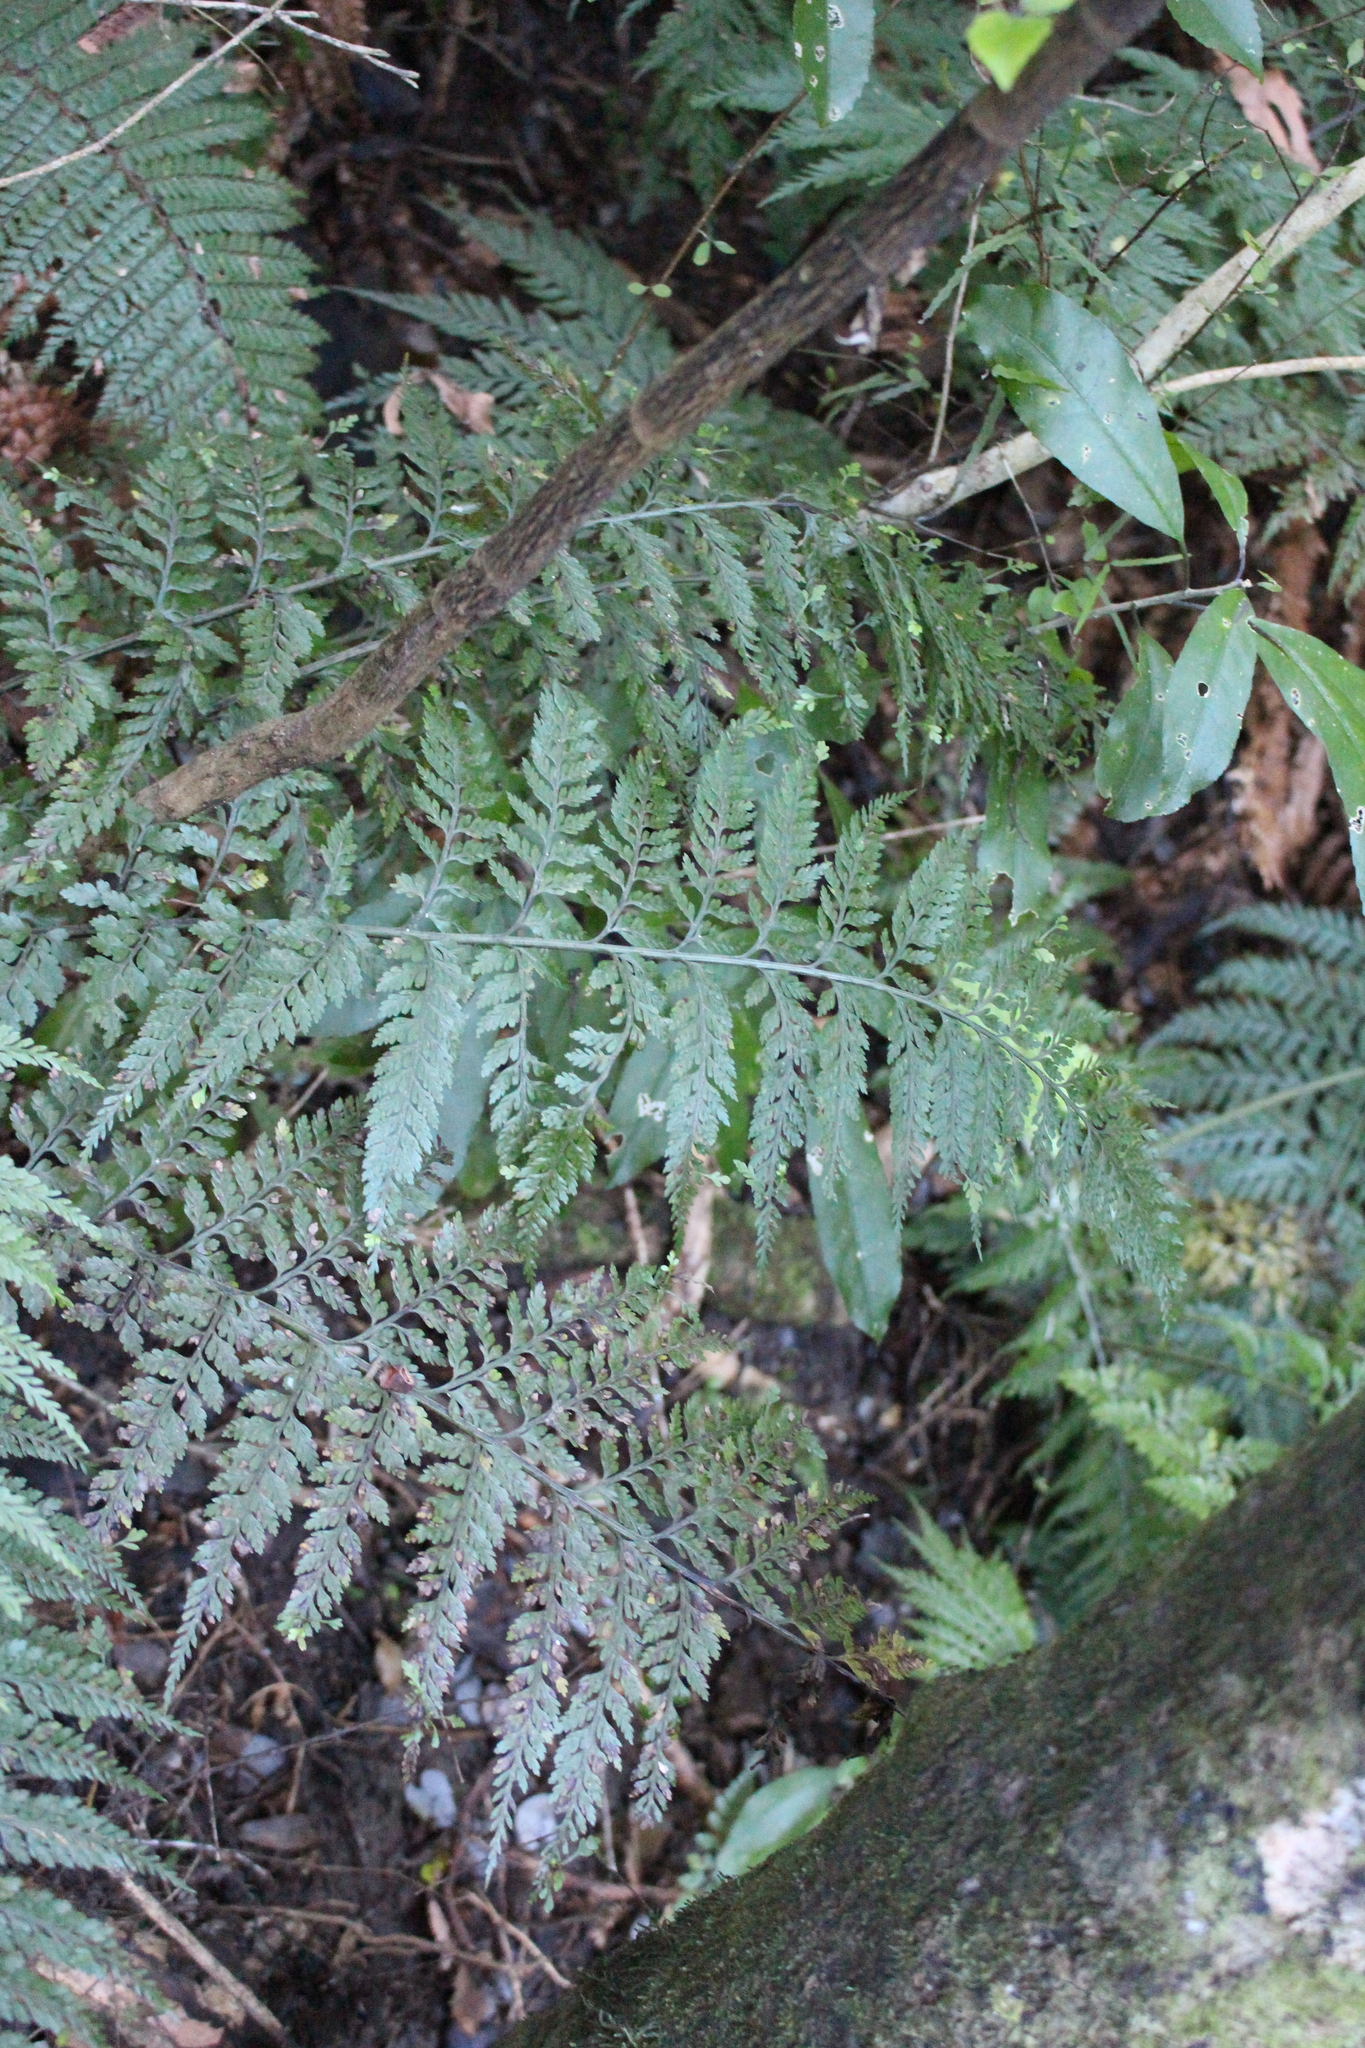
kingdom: Plantae
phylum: Tracheophyta
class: Polypodiopsida
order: Polypodiales
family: Aspleniaceae
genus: Asplenium
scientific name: Asplenium
